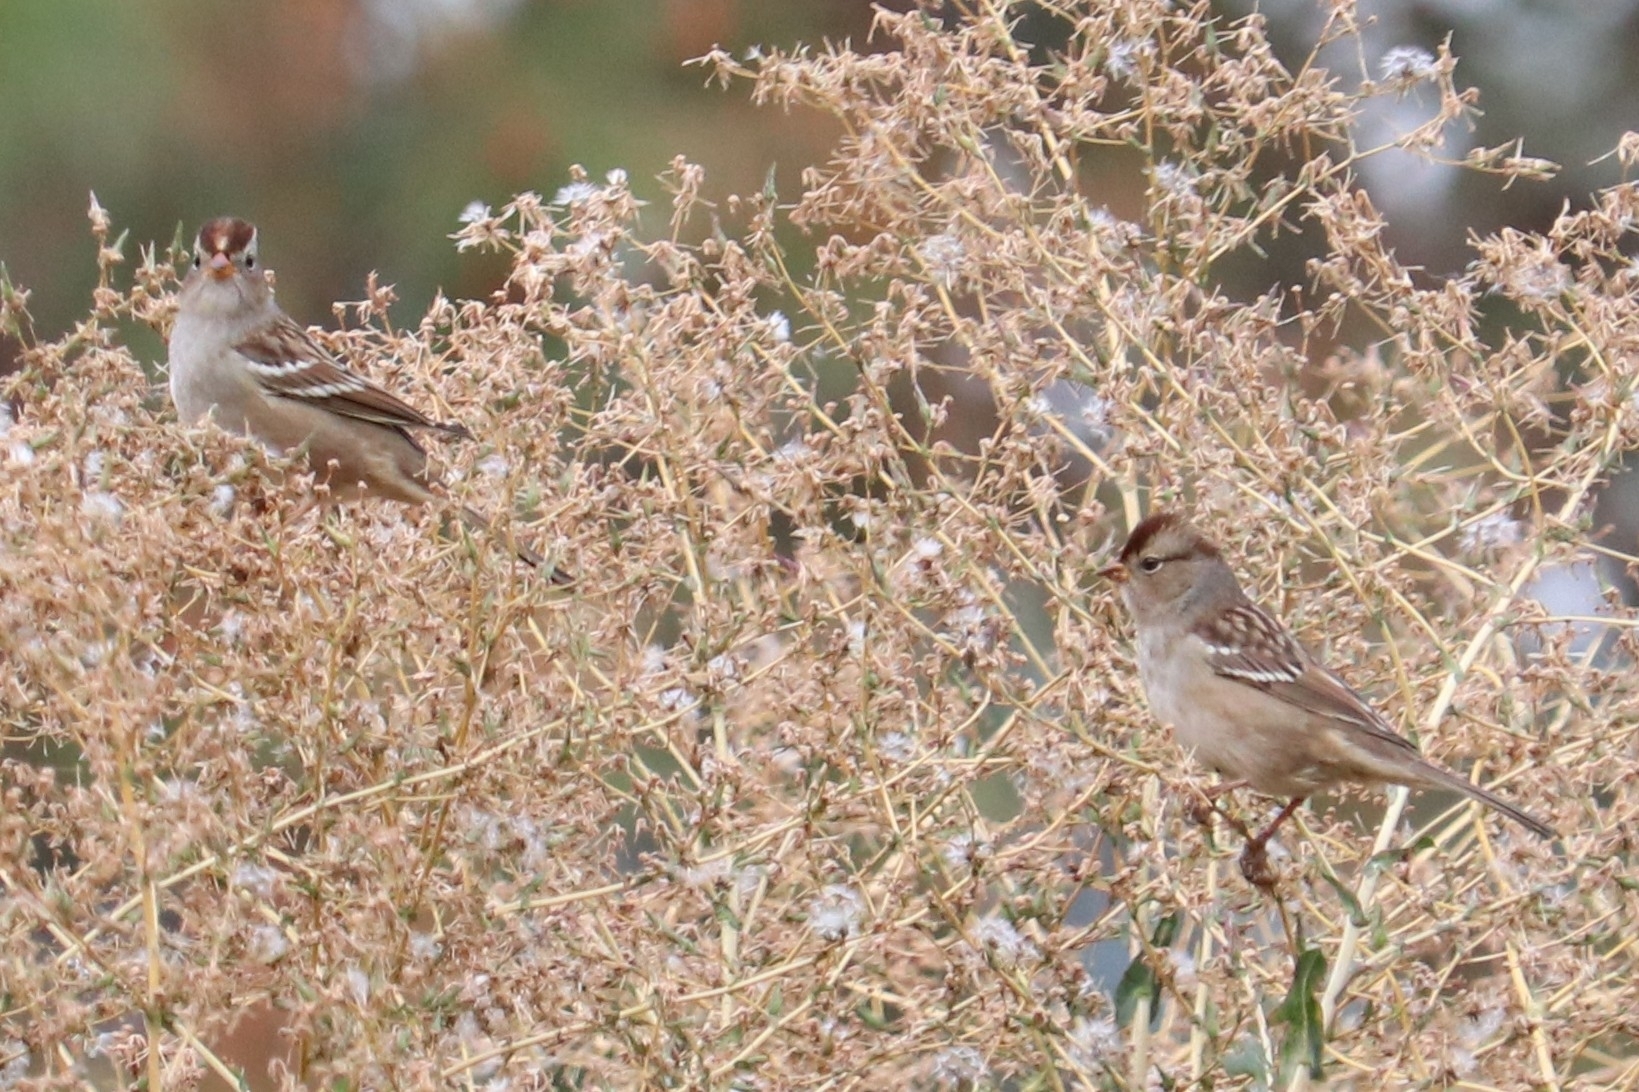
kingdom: Animalia
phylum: Chordata
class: Aves
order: Passeriformes
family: Passerellidae
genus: Zonotrichia
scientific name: Zonotrichia leucophrys
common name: White-crowned sparrow
